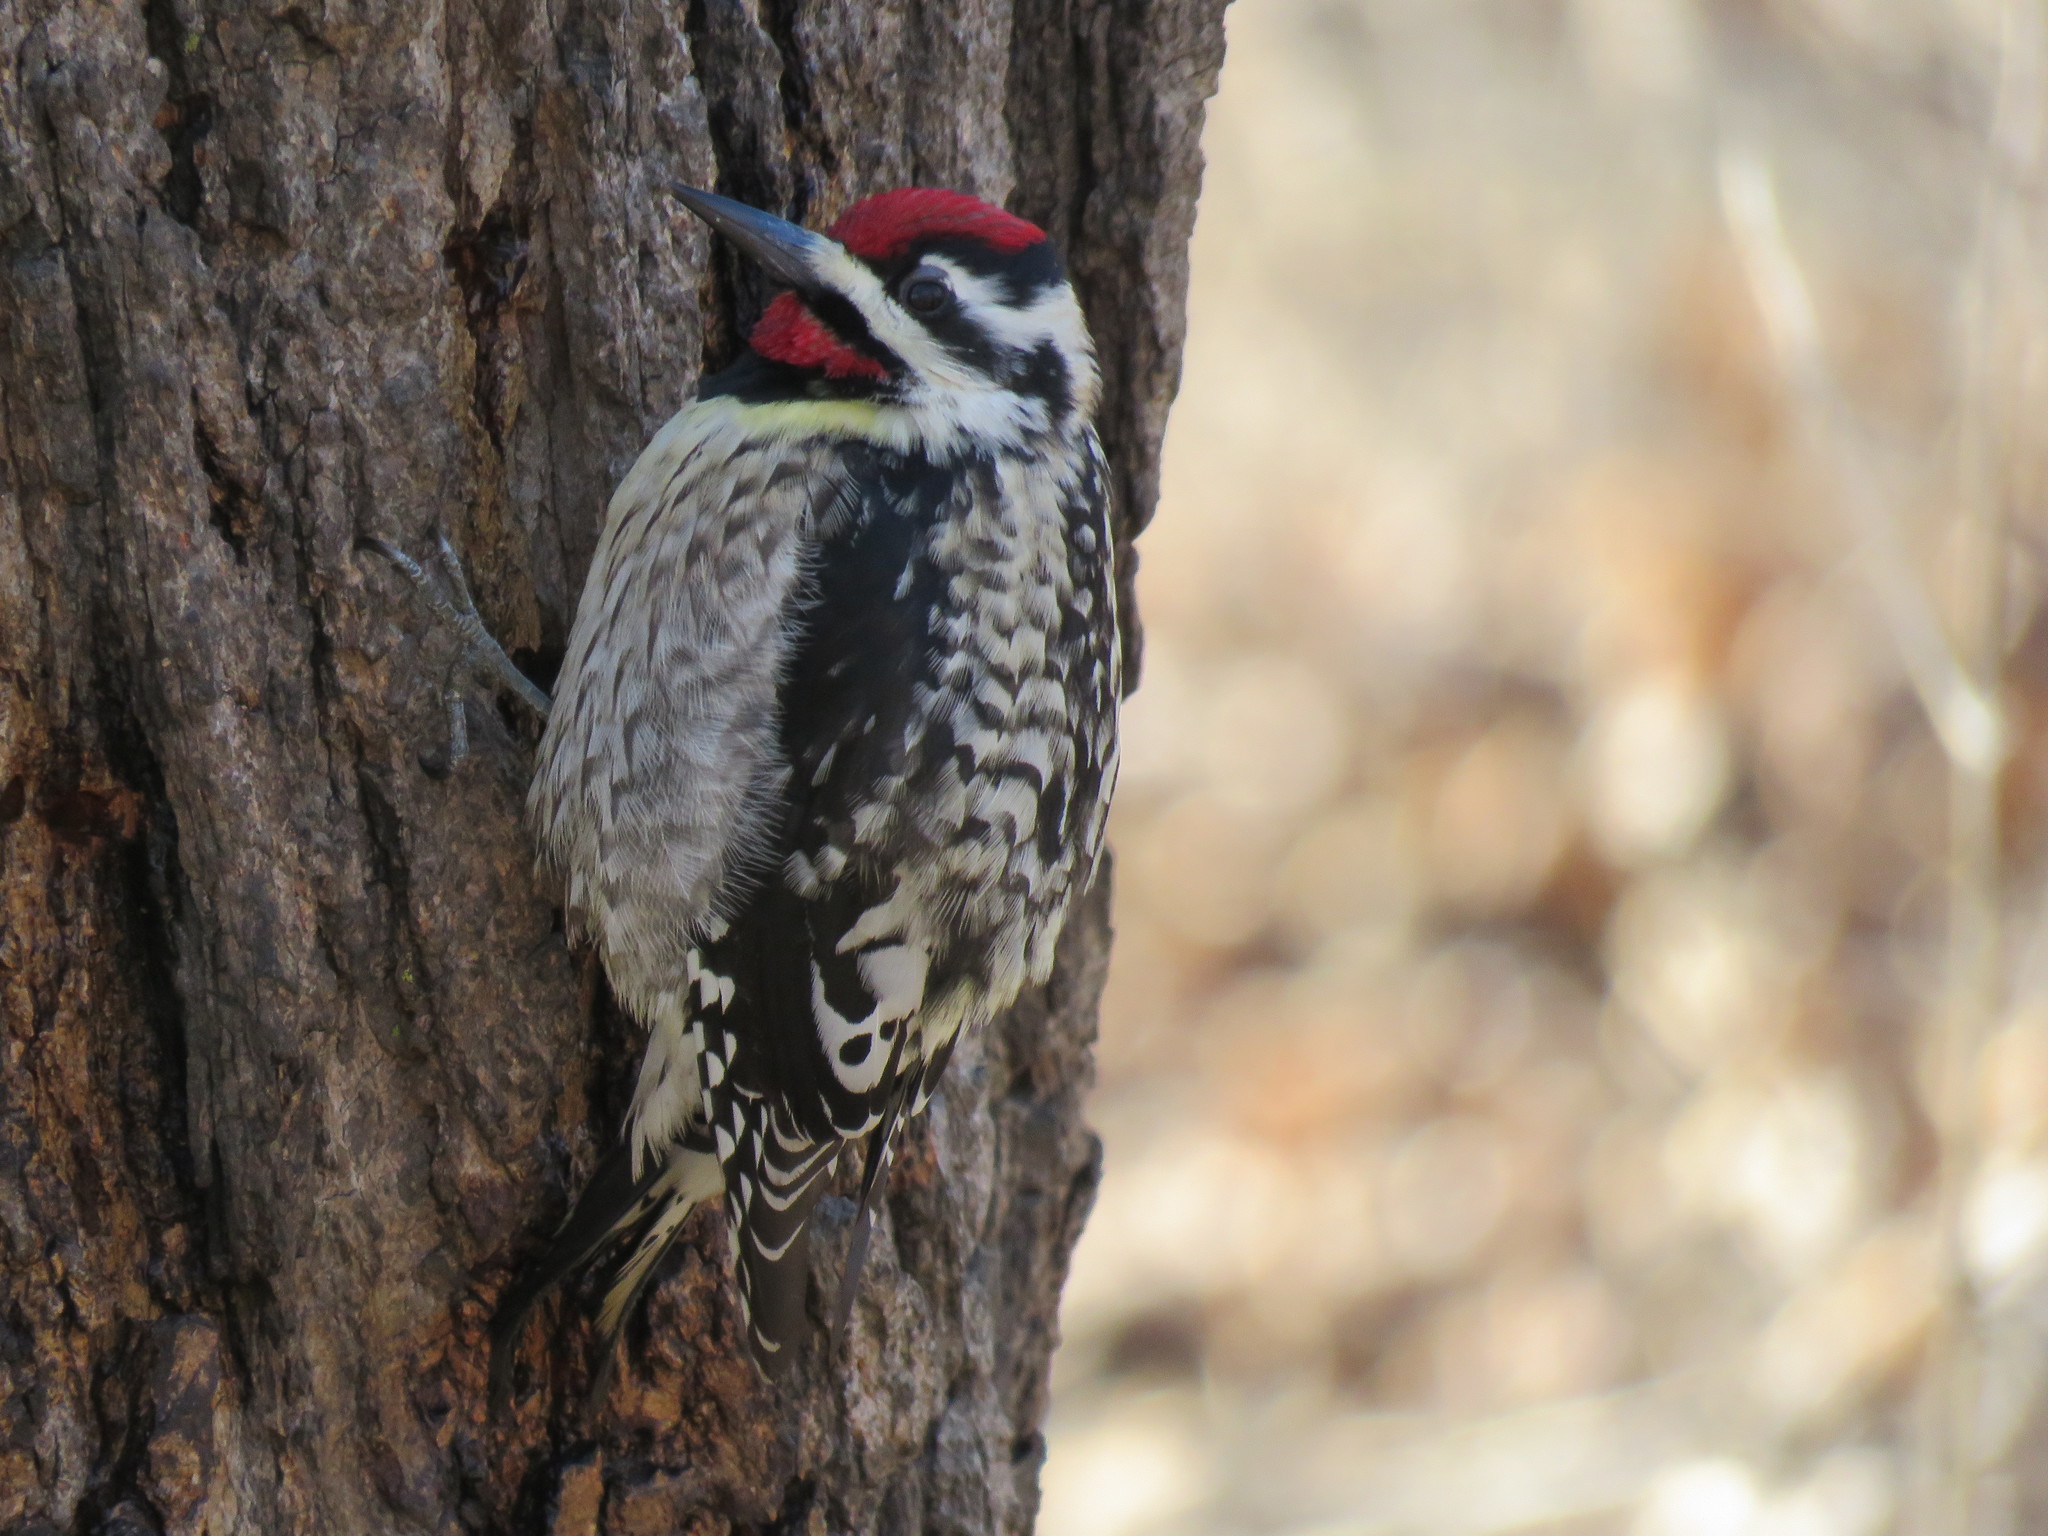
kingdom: Animalia
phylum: Chordata
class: Aves
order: Piciformes
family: Picidae
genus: Sphyrapicus
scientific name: Sphyrapicus varius
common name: Yellow-bellied sapsucker
